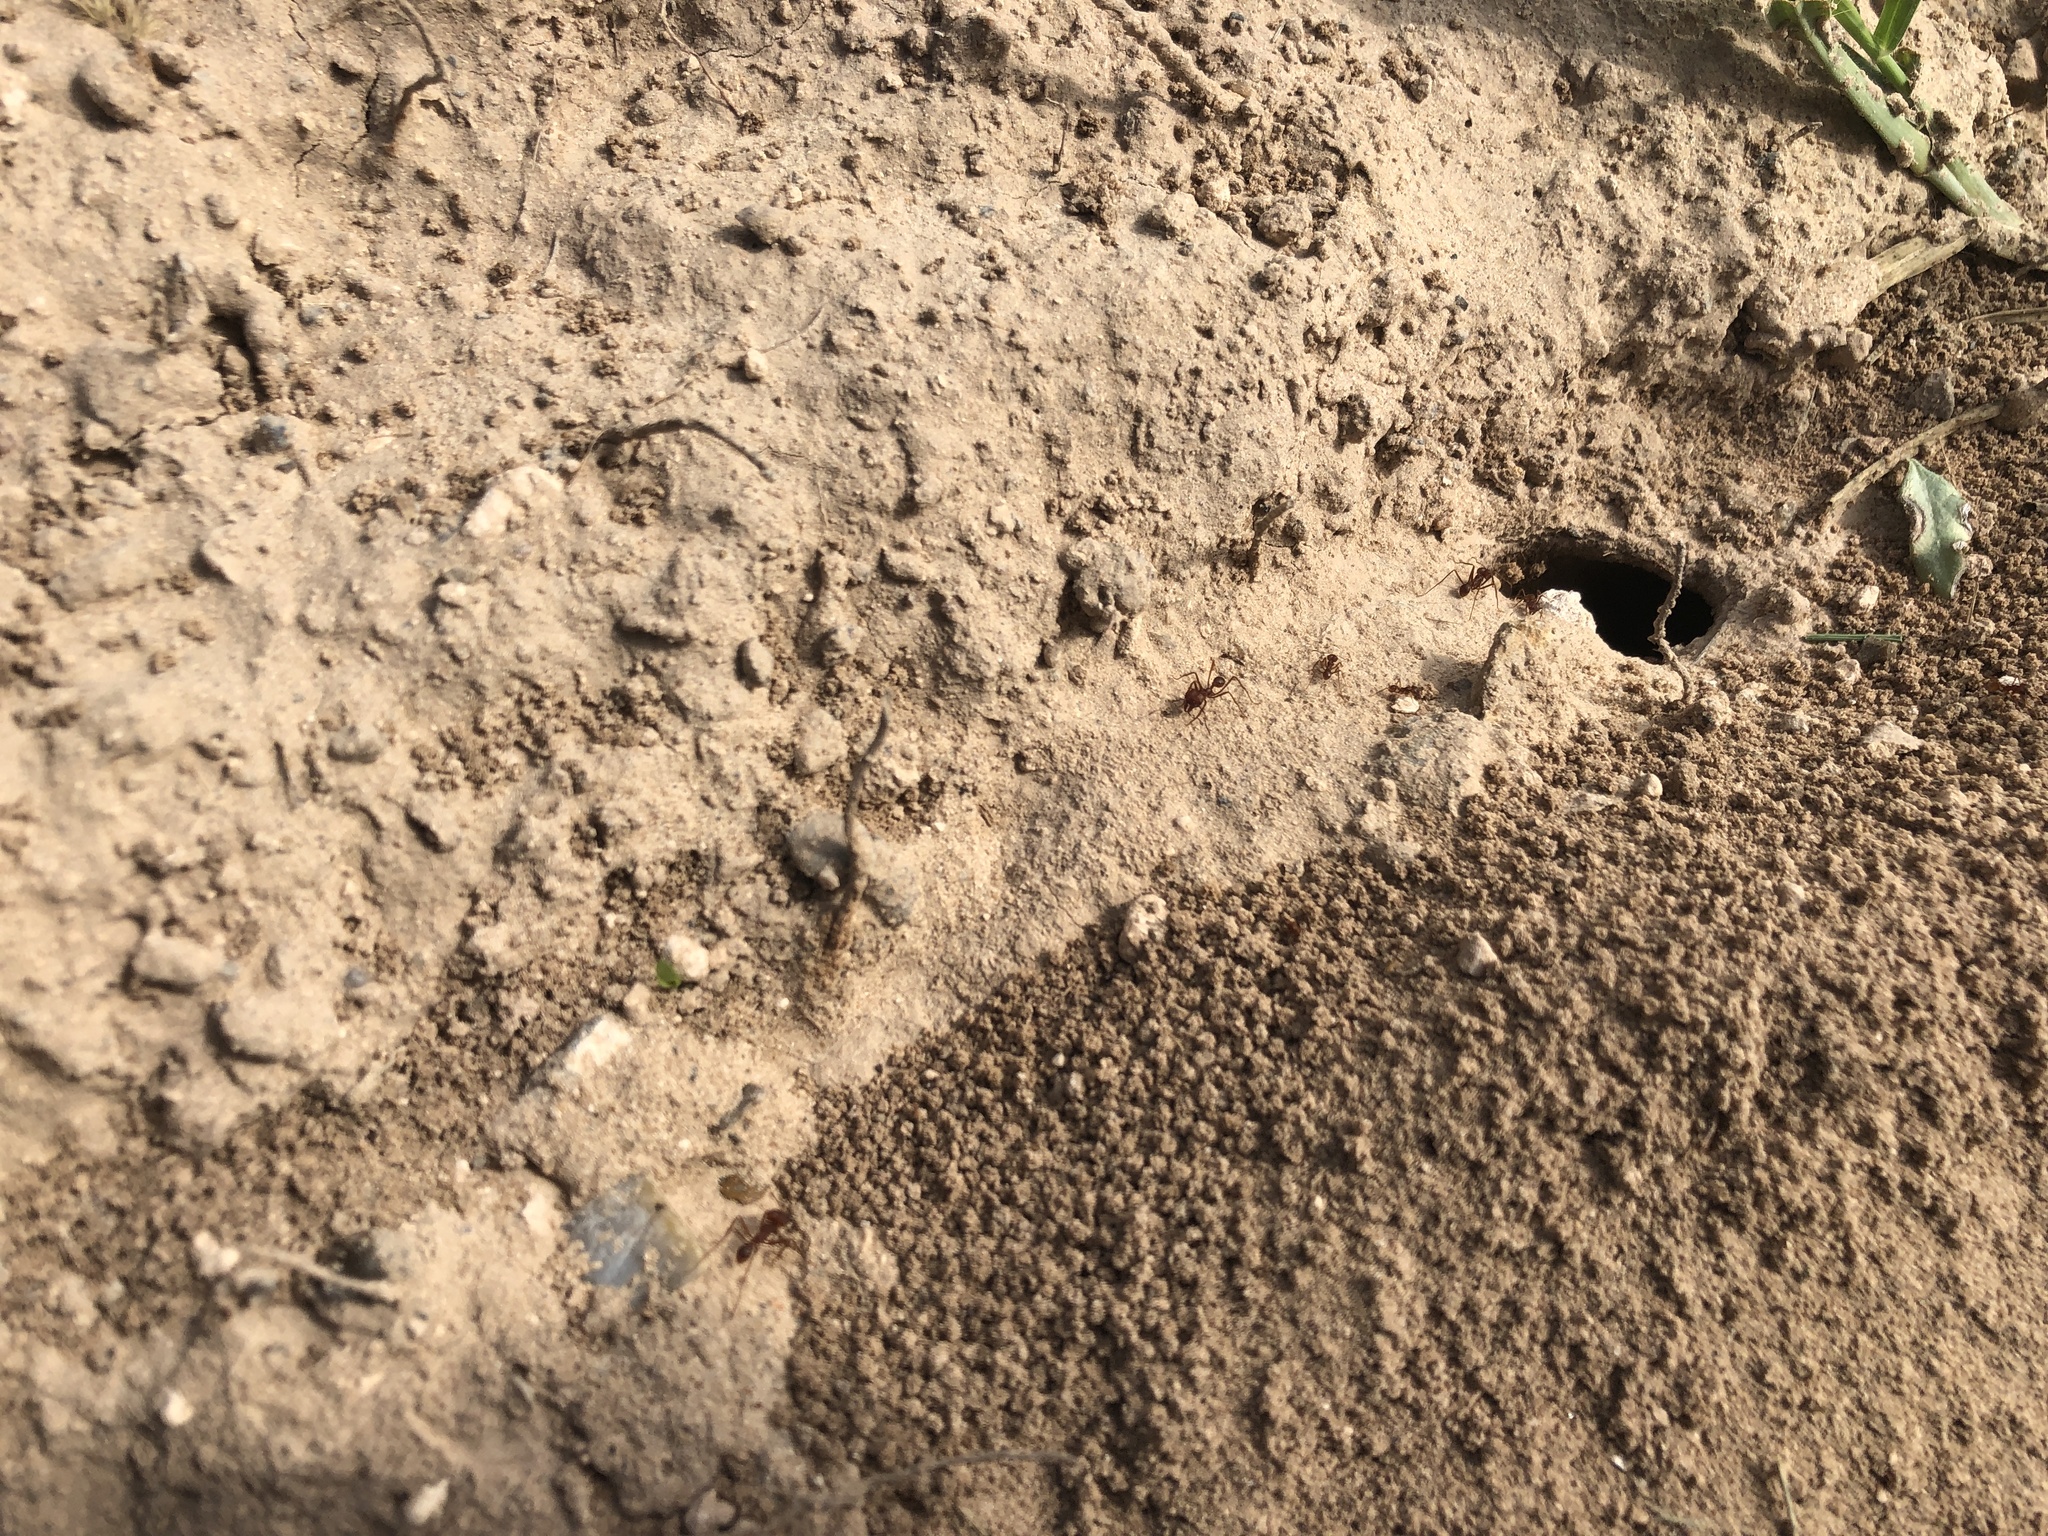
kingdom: Animalia
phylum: Arthropoda
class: Insecta
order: Hymenoptera
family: Formicidae
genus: Atta
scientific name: Atta texana
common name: Texas leafcutting ant
